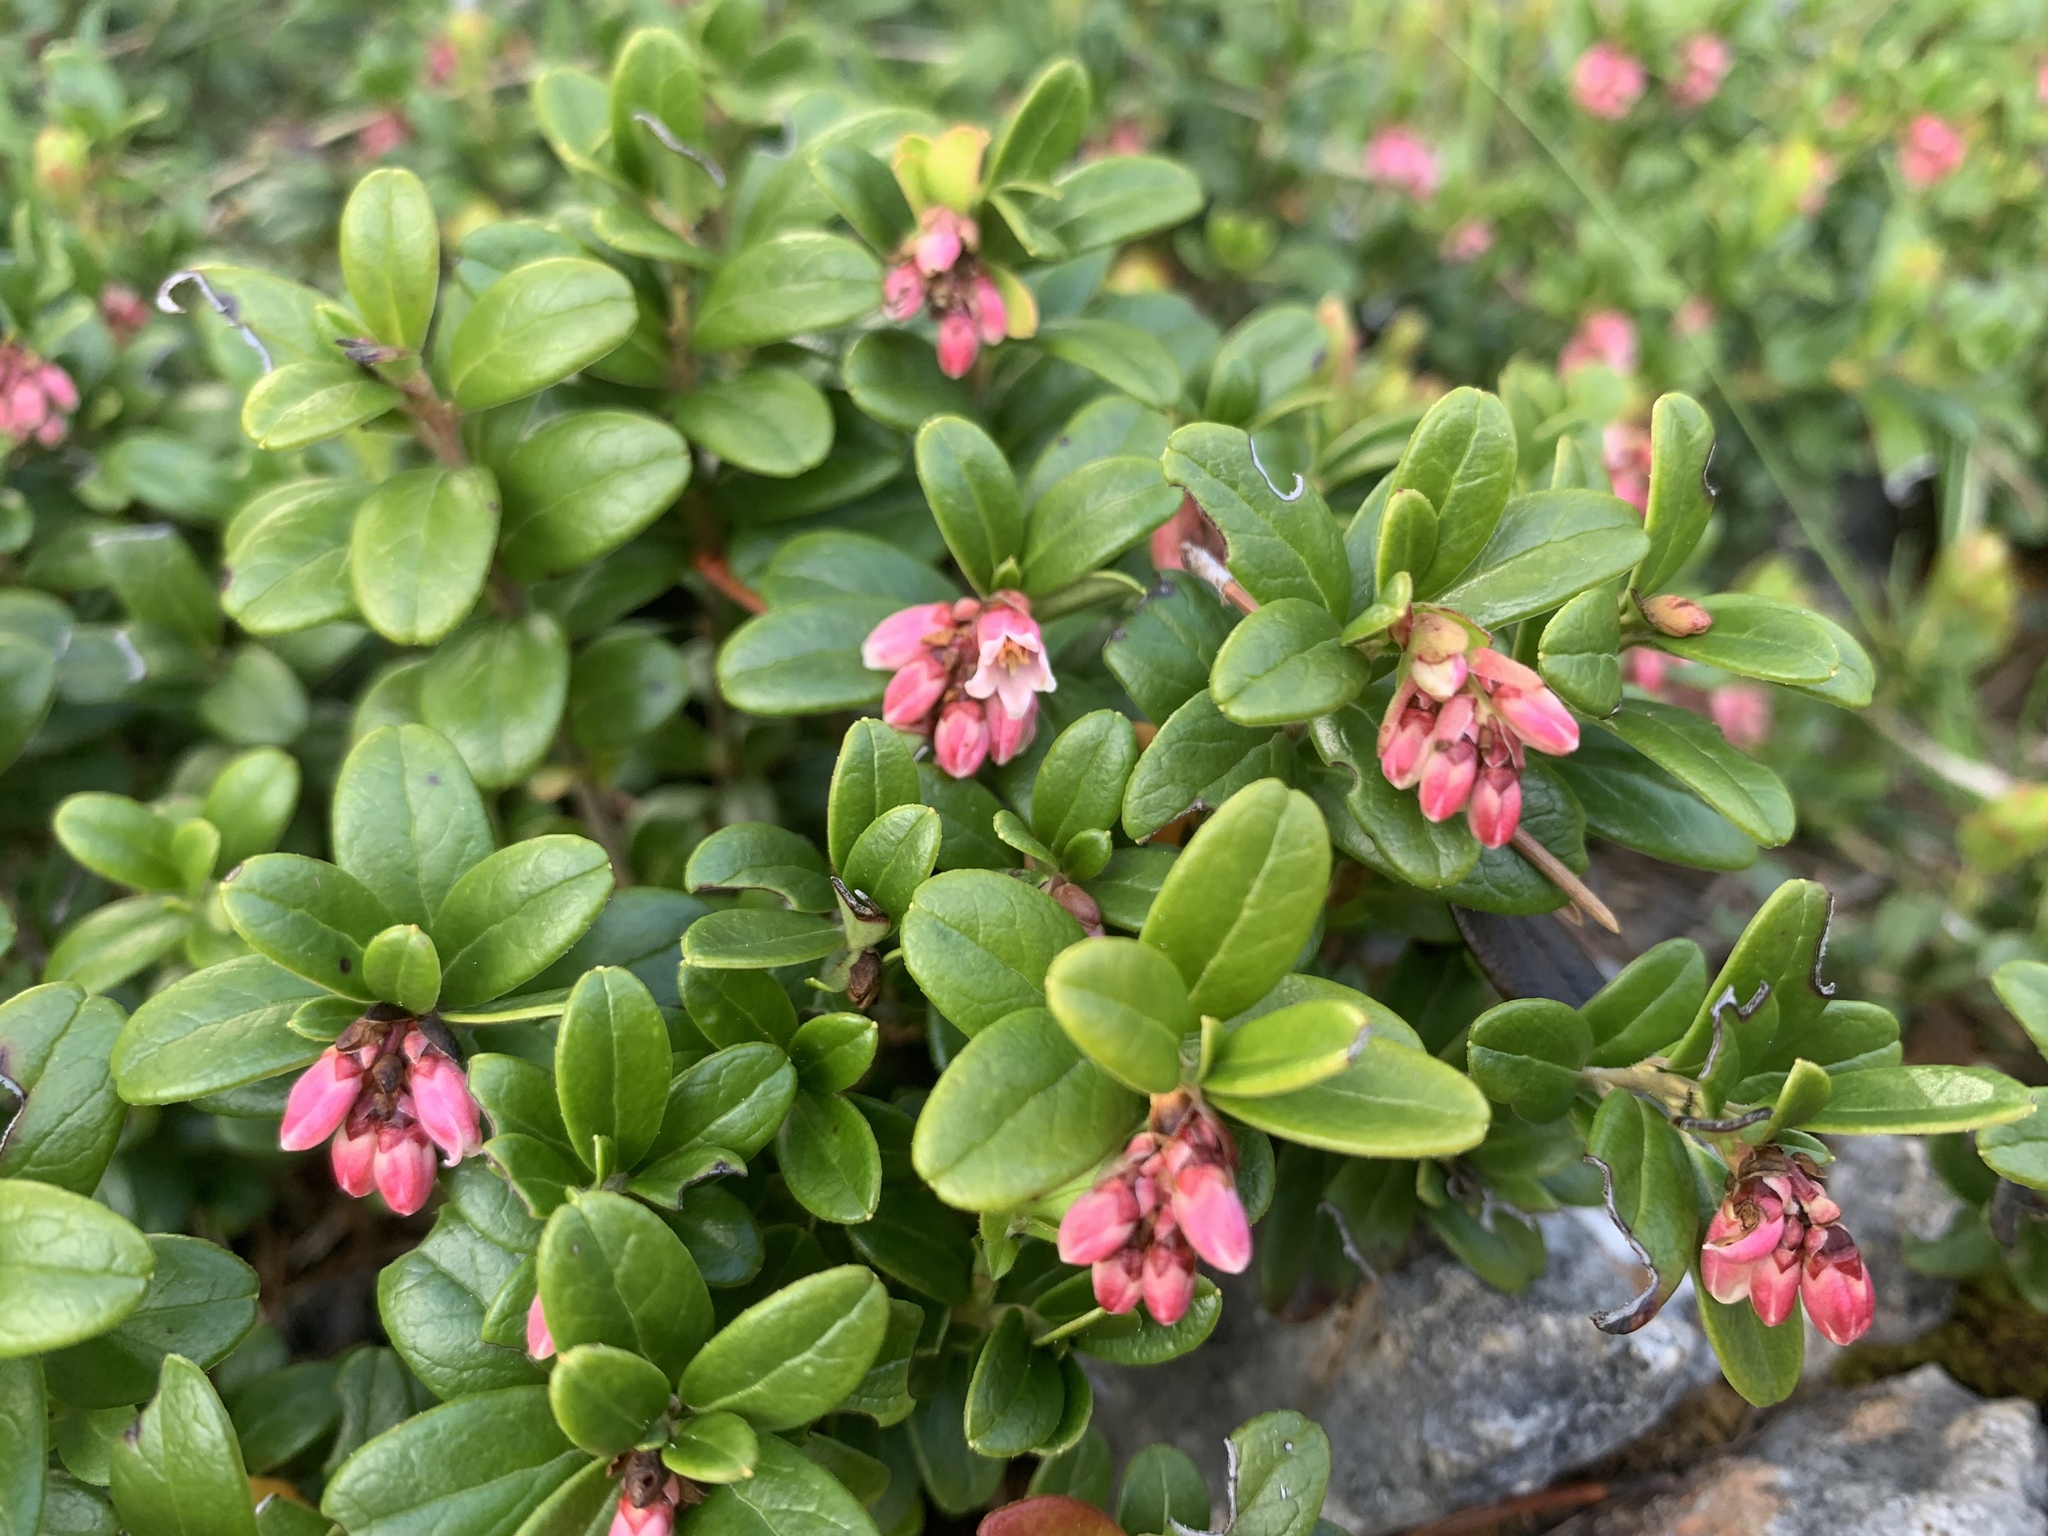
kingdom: Plantae
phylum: Tracheophyta
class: Magnoliopsida
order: Ericales
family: Ericaceae
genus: Rhododendron
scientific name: Rhododendron ferrugineum
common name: Alpenrose
